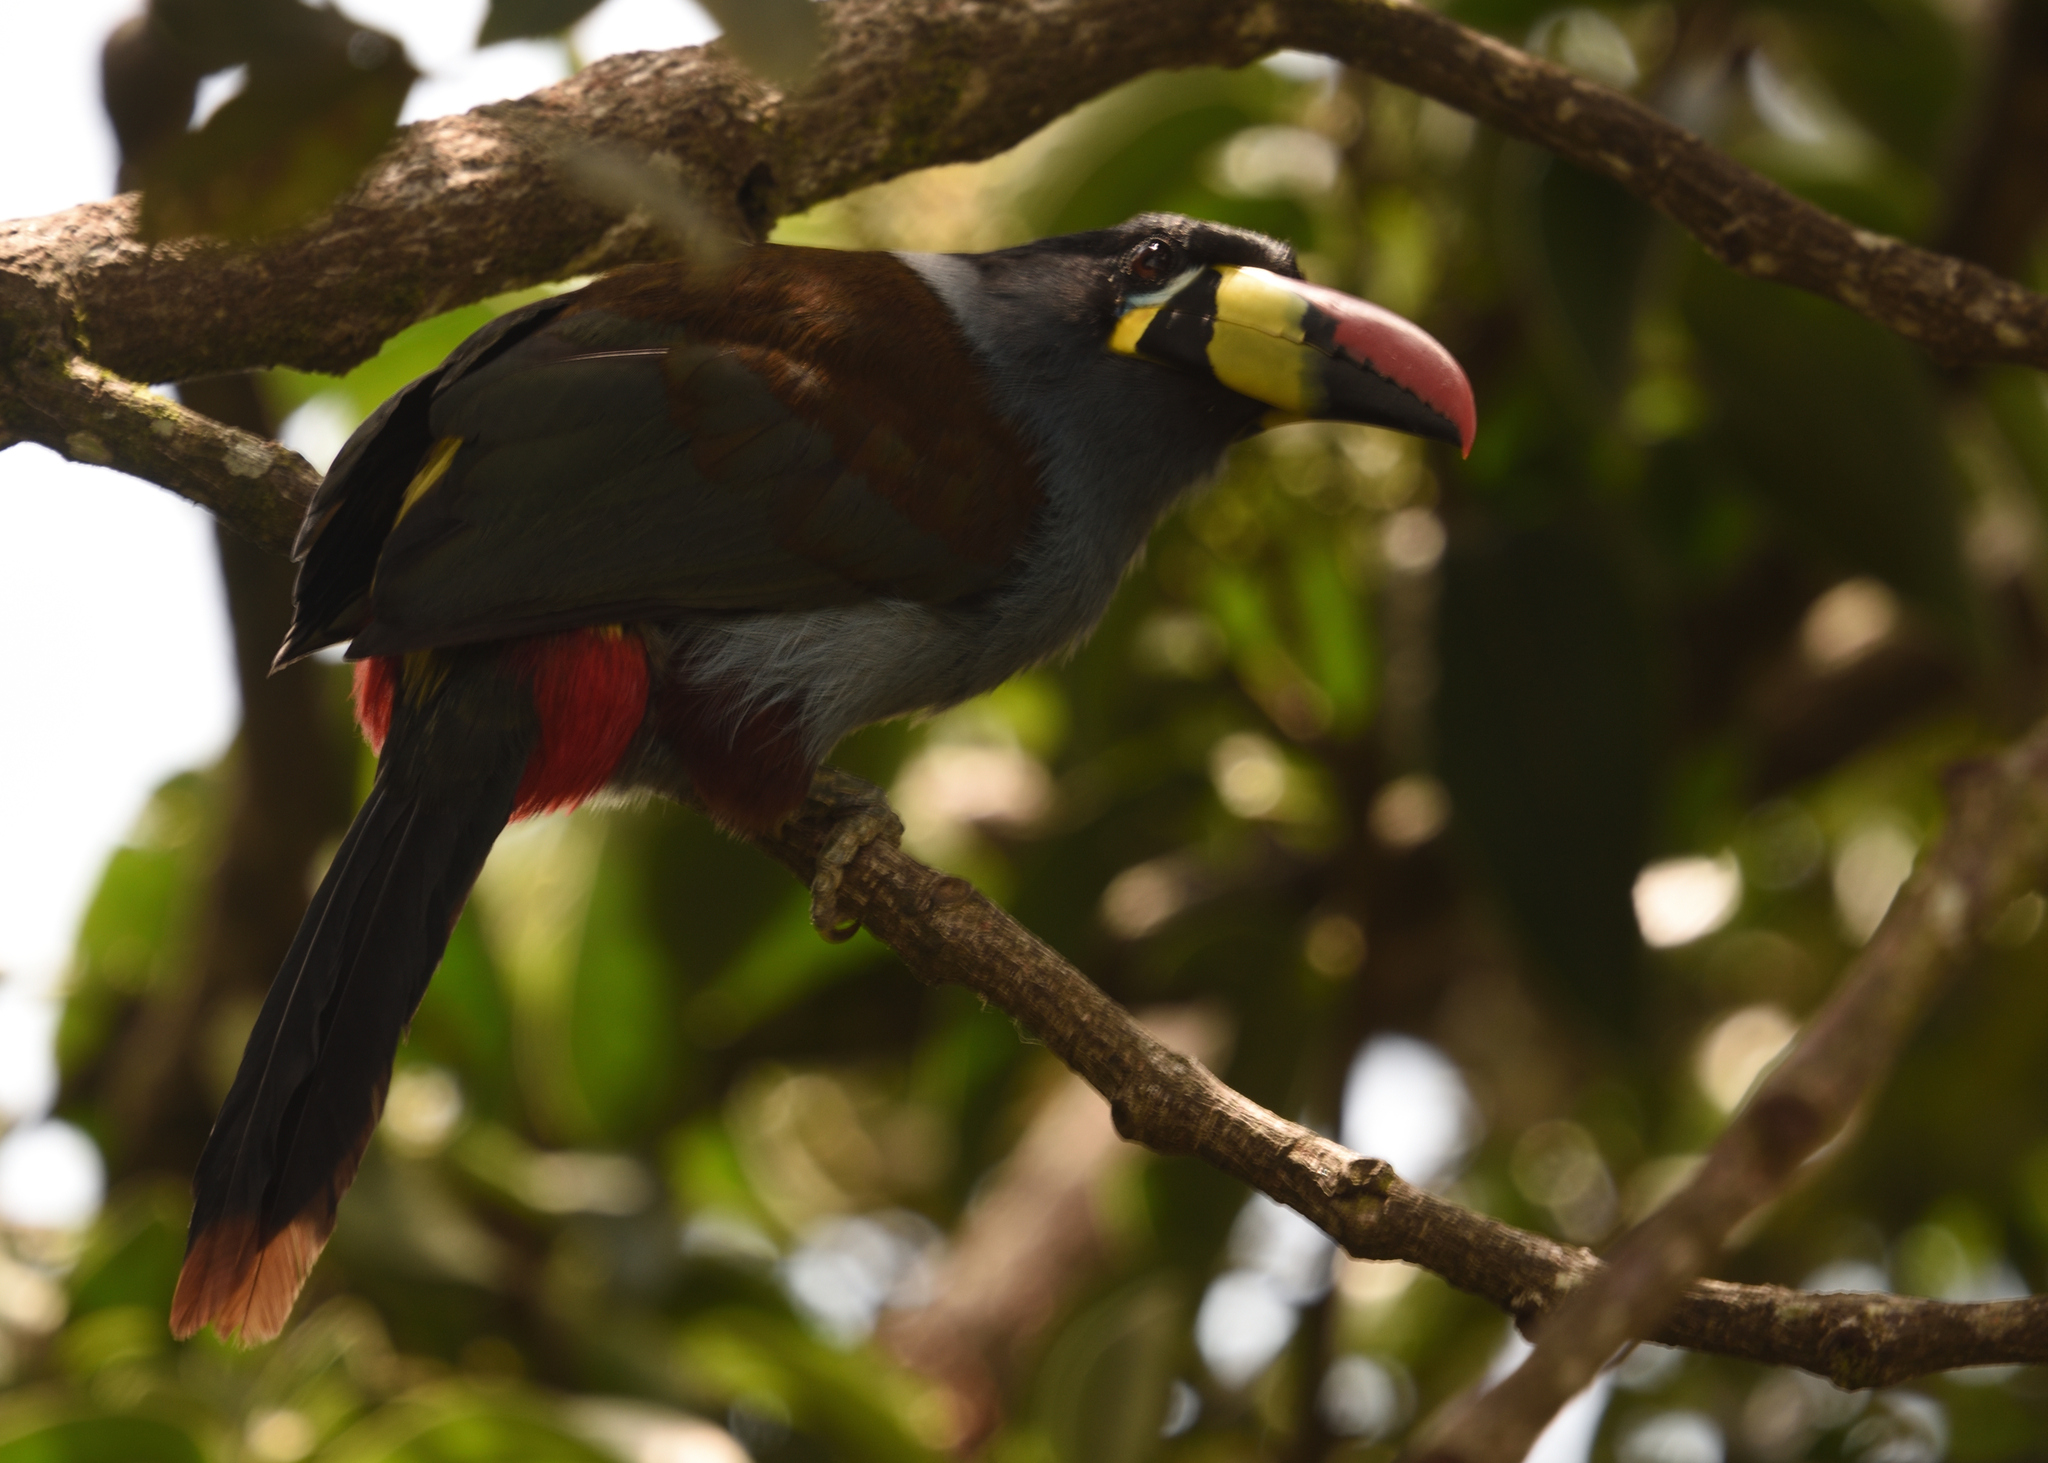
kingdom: Animalia
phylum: Chordata
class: Aves
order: Piciformes
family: Ramphastidae
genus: Andigena
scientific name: Andigena hypoglauca
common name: Grey-breasted mountain toucan
